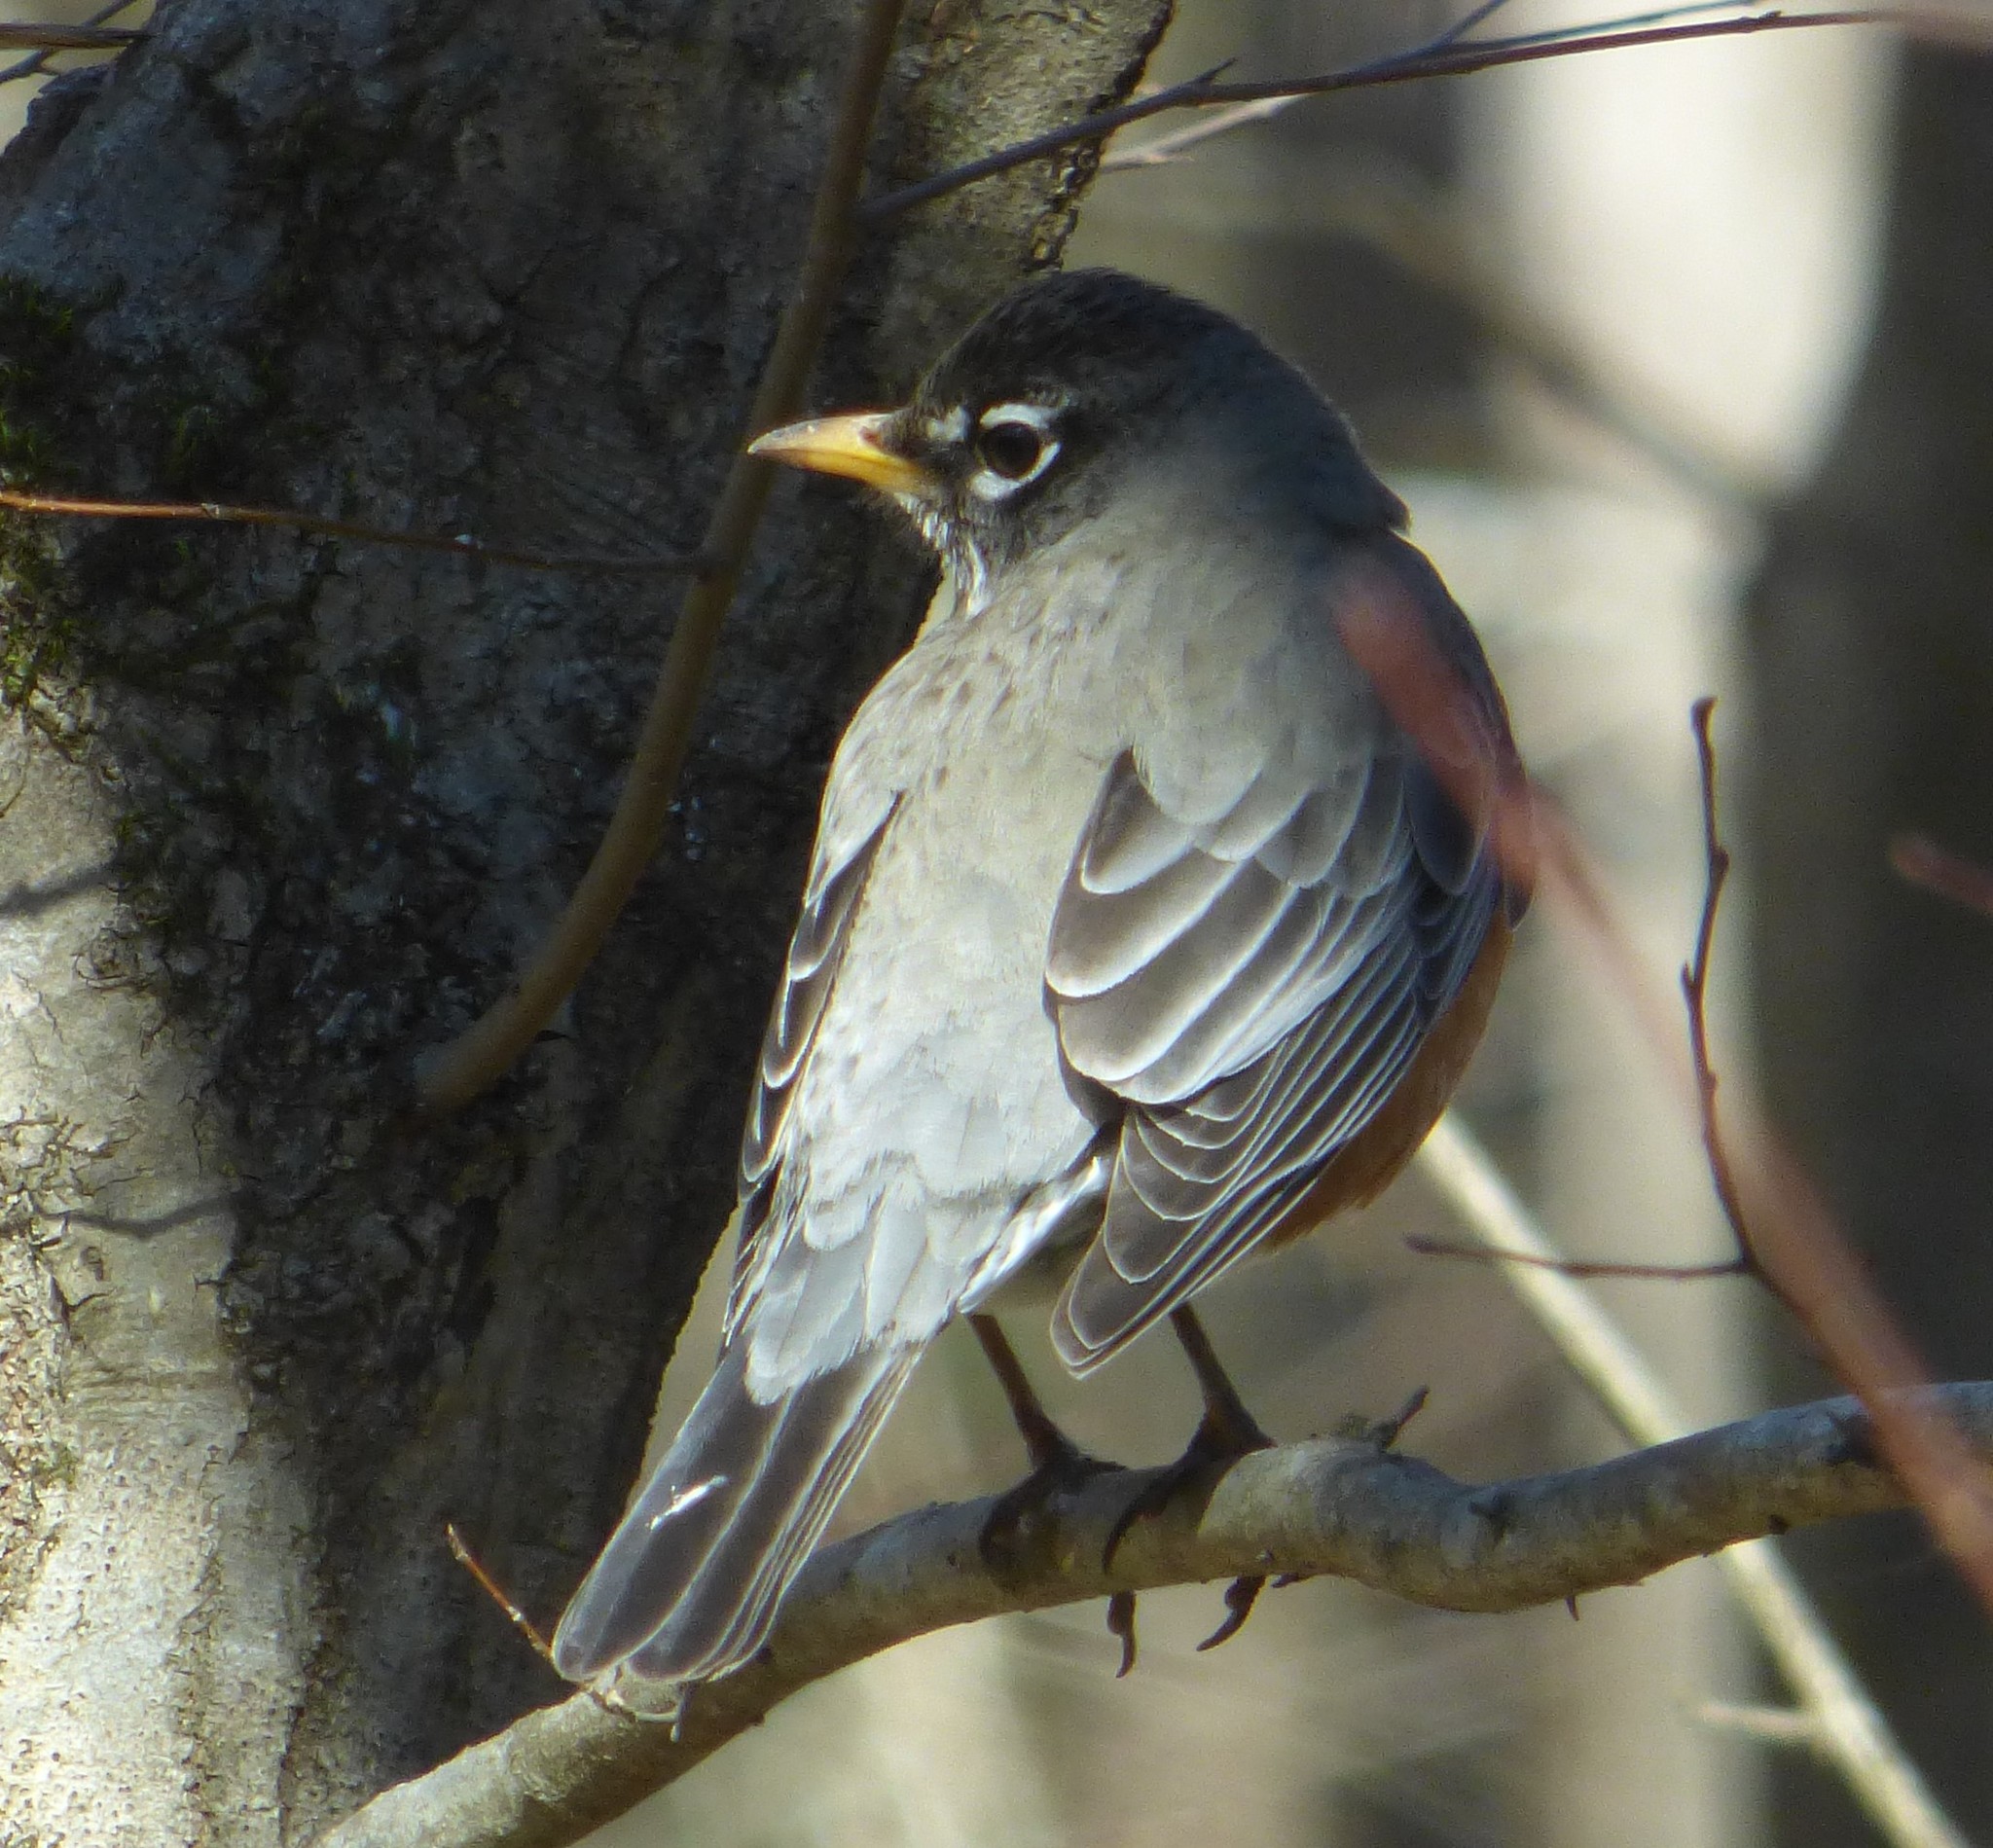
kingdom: Animalia
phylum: Chordata
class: Aves
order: Passeriformes
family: Turdidae
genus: Turdus
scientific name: Turdus migratorius
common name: American robin
